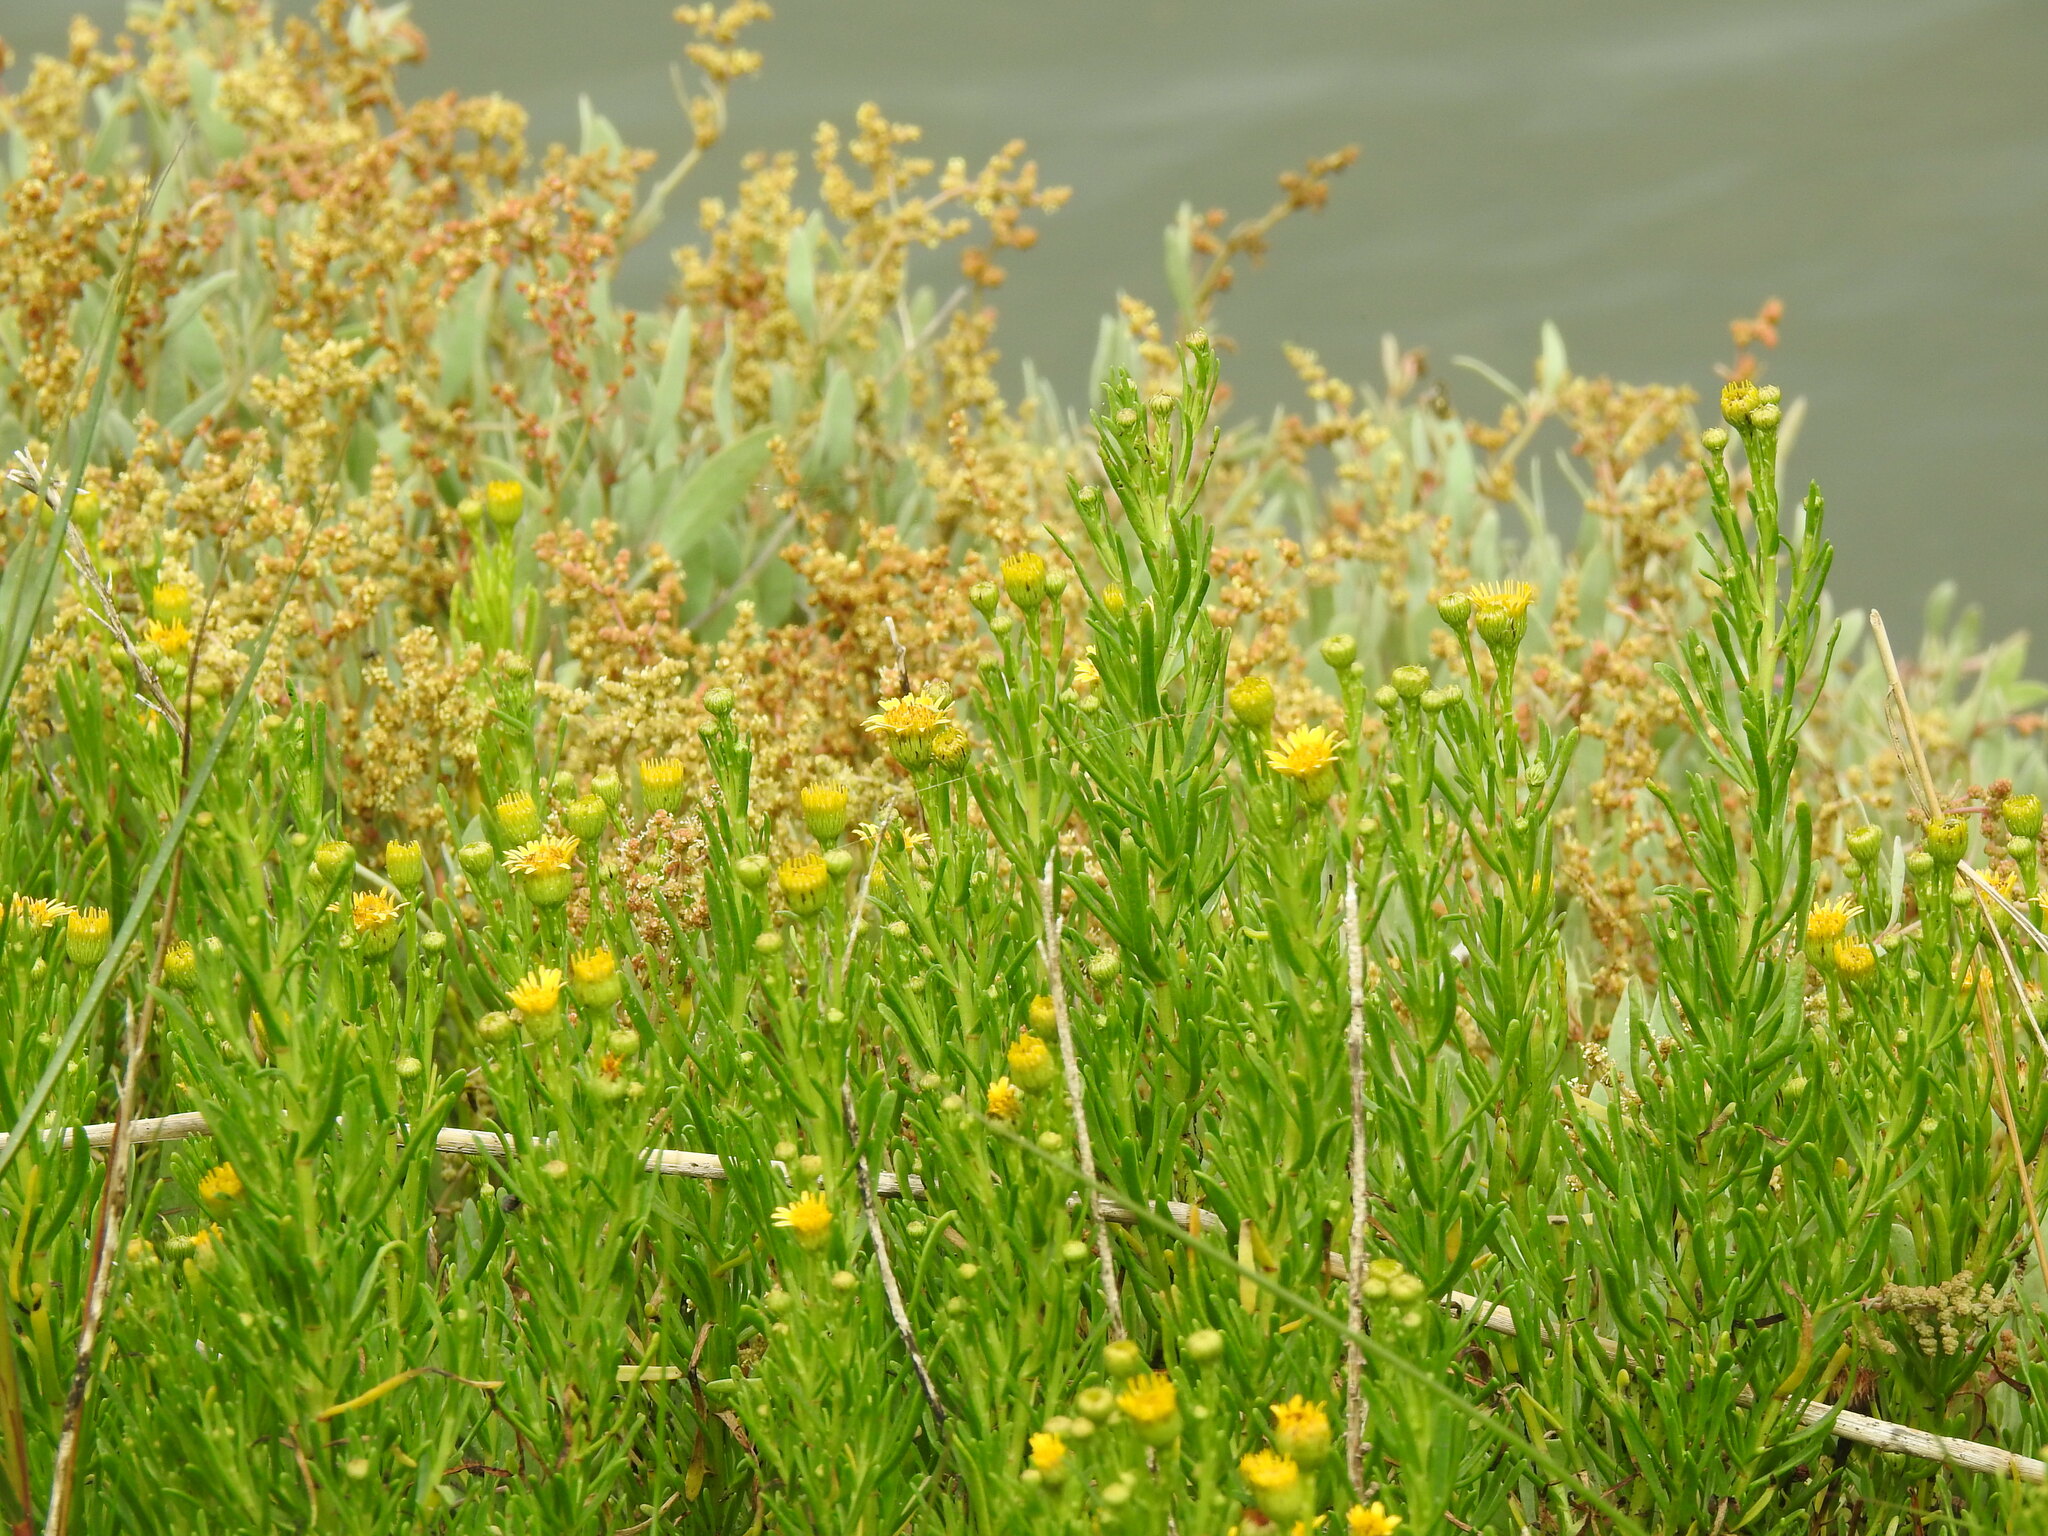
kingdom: Plantae
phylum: Tracheophyta
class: Magnoliopsida
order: Asterales
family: Asteraceae
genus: Limbarda
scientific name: Limbarda crithmoides
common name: Golden samphire
